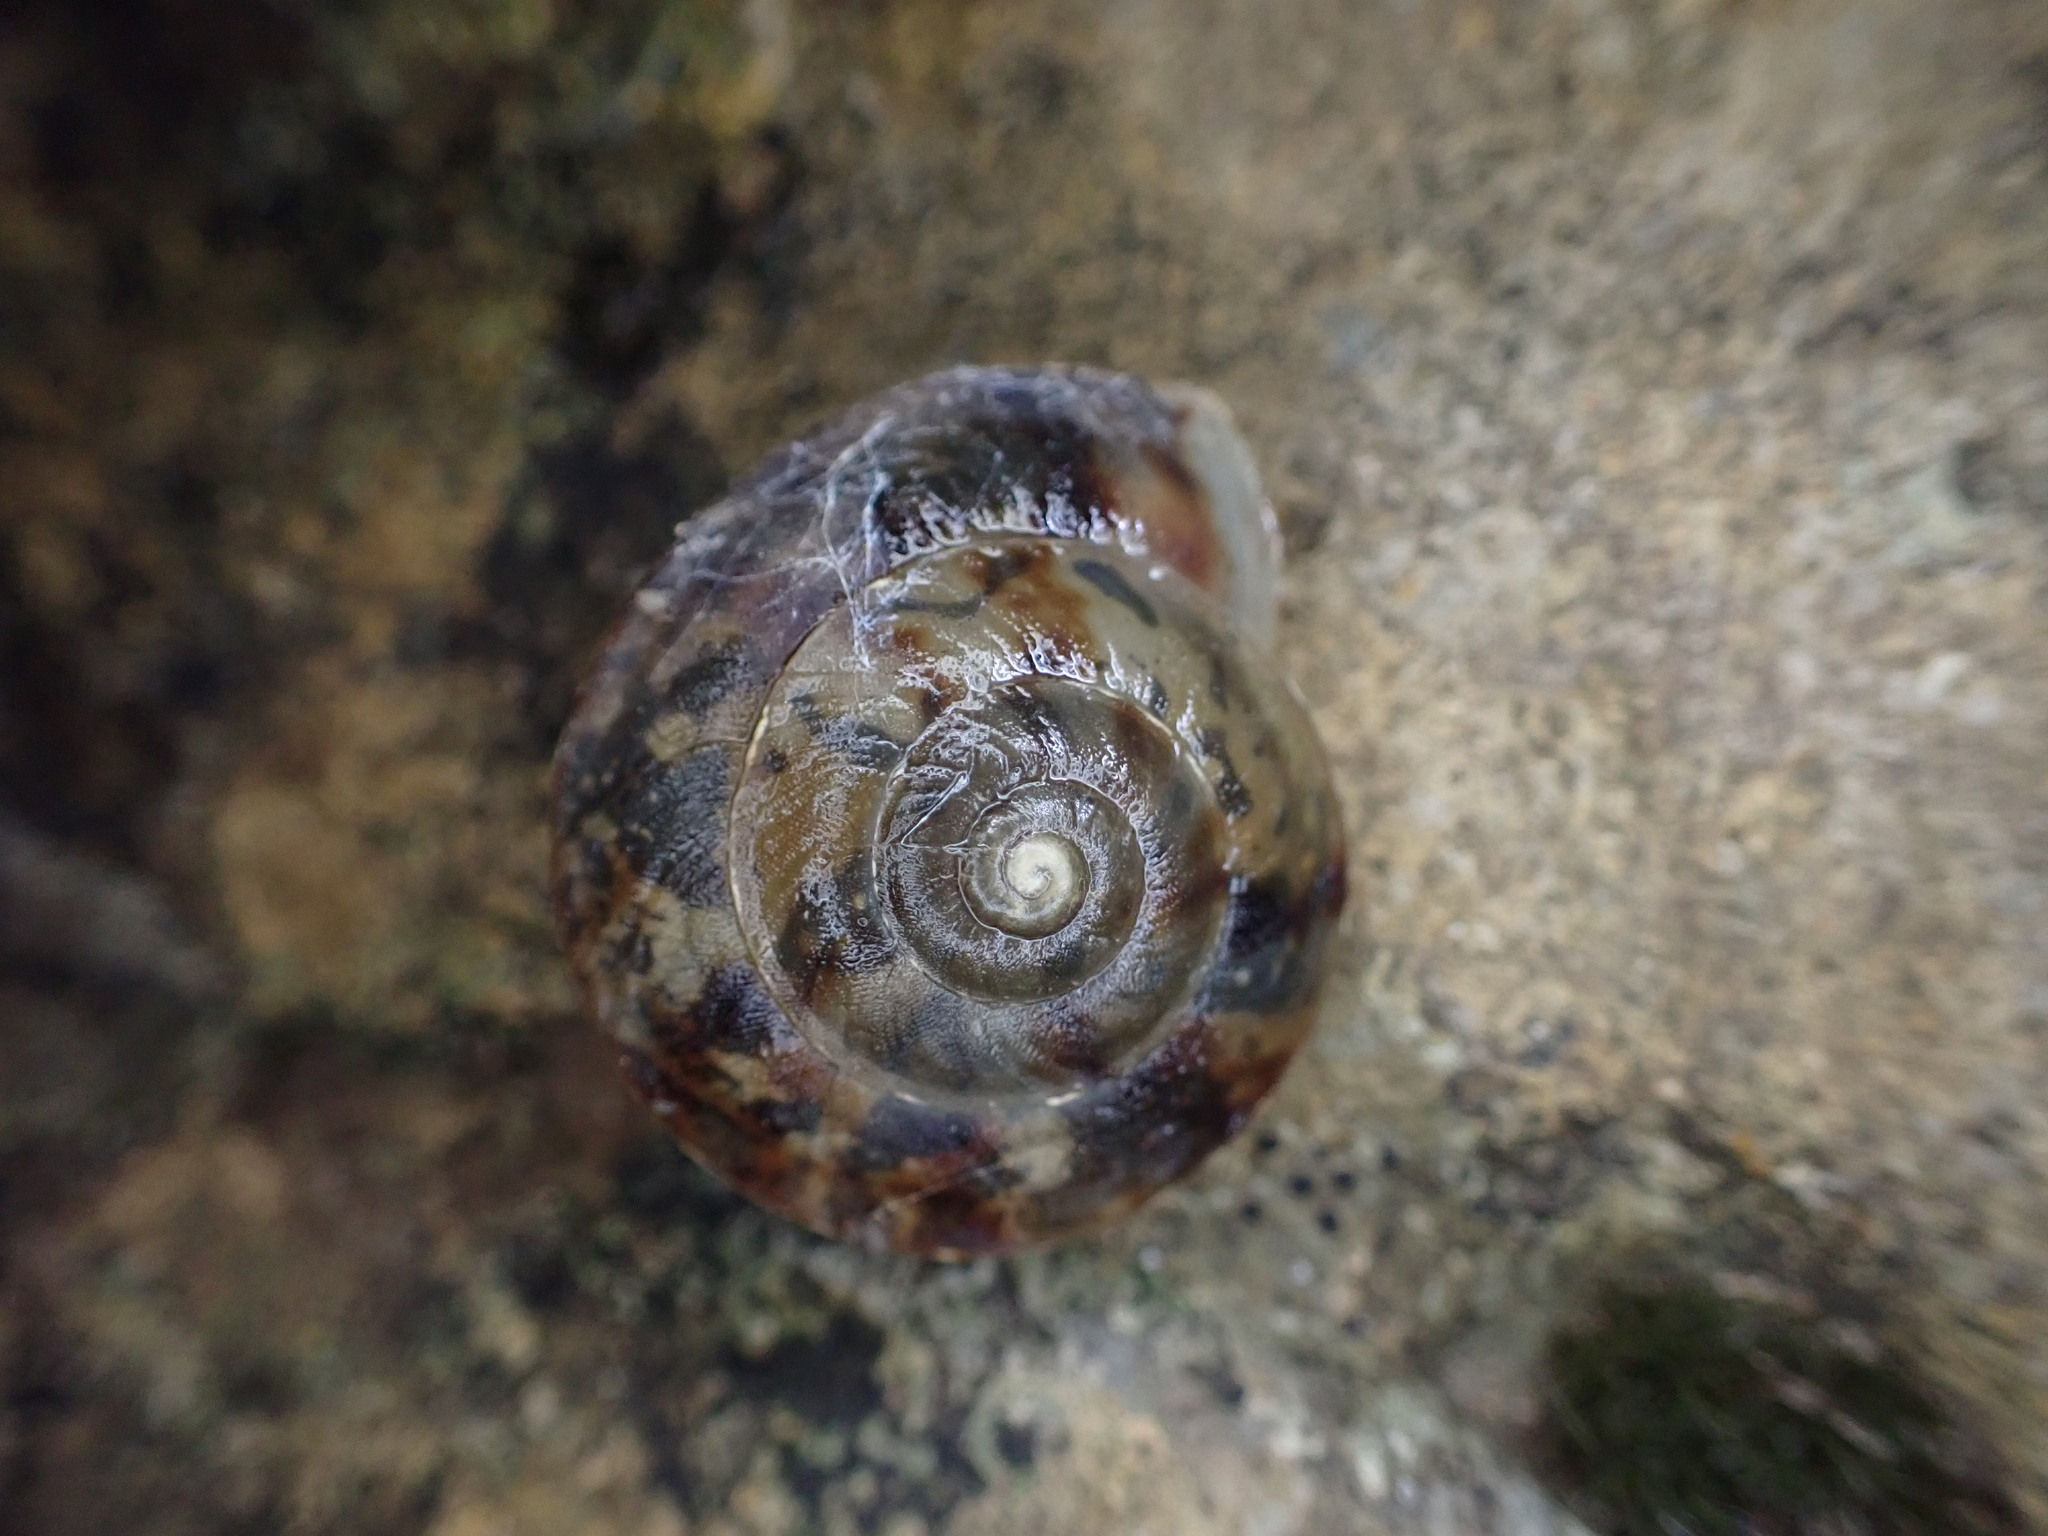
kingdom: Animalia
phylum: Mollusca
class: Gastropoda
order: Stylommatophora
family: Helicidae
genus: Helicigona
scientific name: Helicigona lapicida
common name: Lapidary snail
